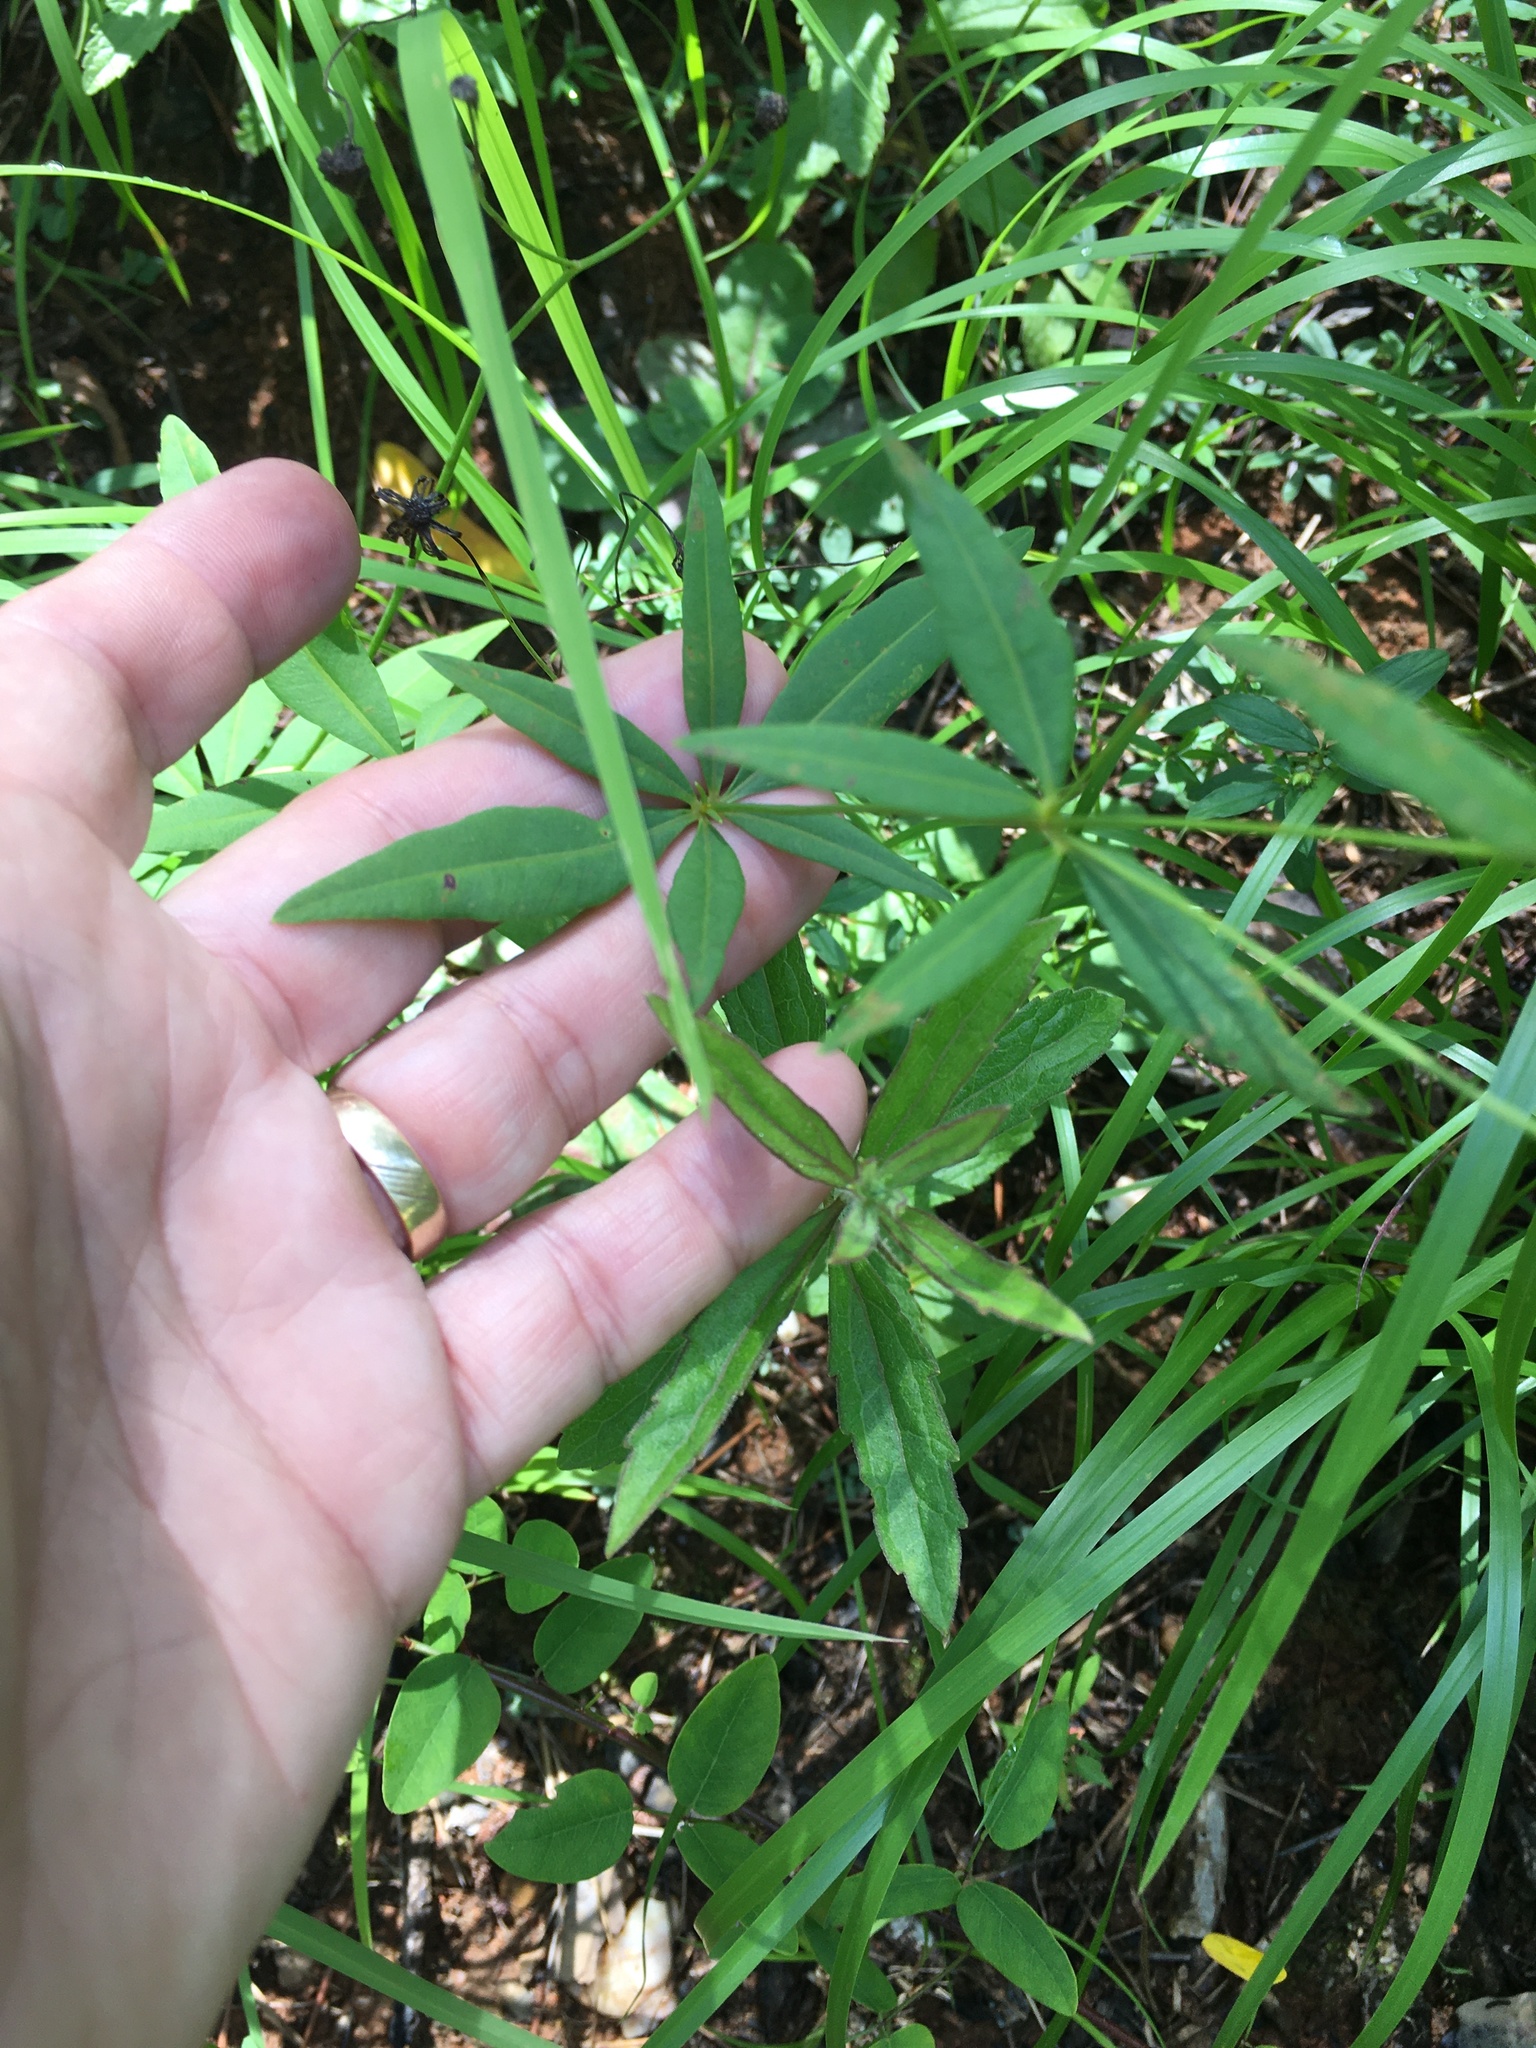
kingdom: Plantae
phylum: Tracheophyta
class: Magnoliopsida
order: Asterales
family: Asteraceae
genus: Coreopsis
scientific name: Coreopsis major
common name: Forest tickseed
